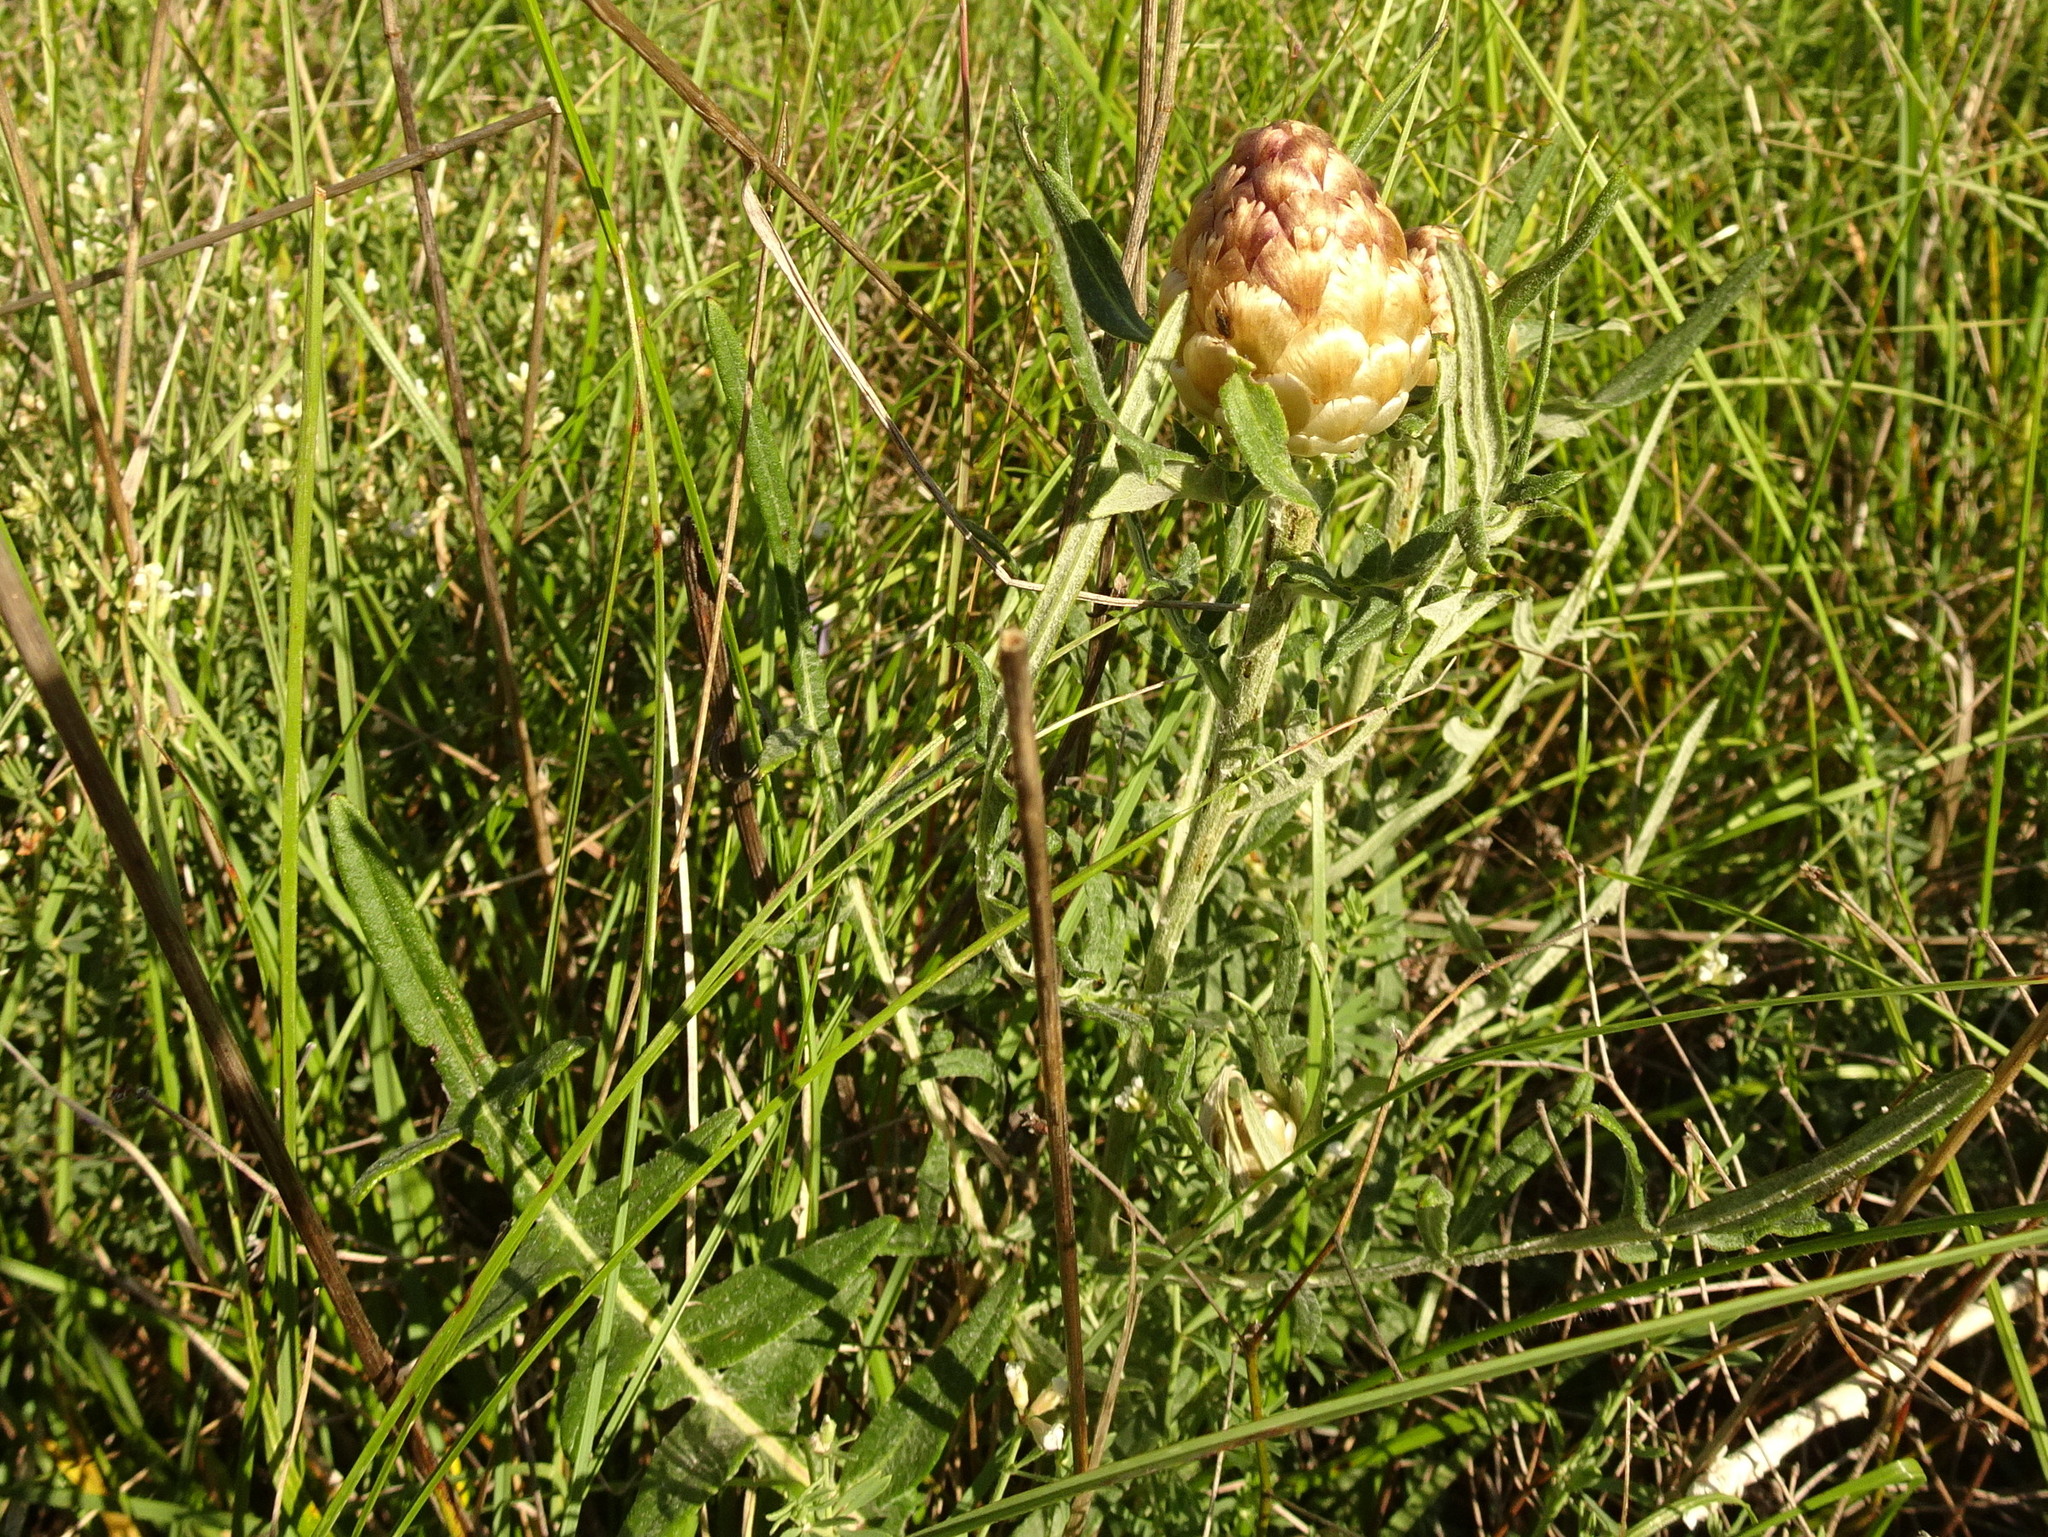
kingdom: Plantae
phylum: Tracheophyta
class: Magnoliopsida
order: Asterales
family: Asteraceae
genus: Leuzea
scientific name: Leuzea conifera
